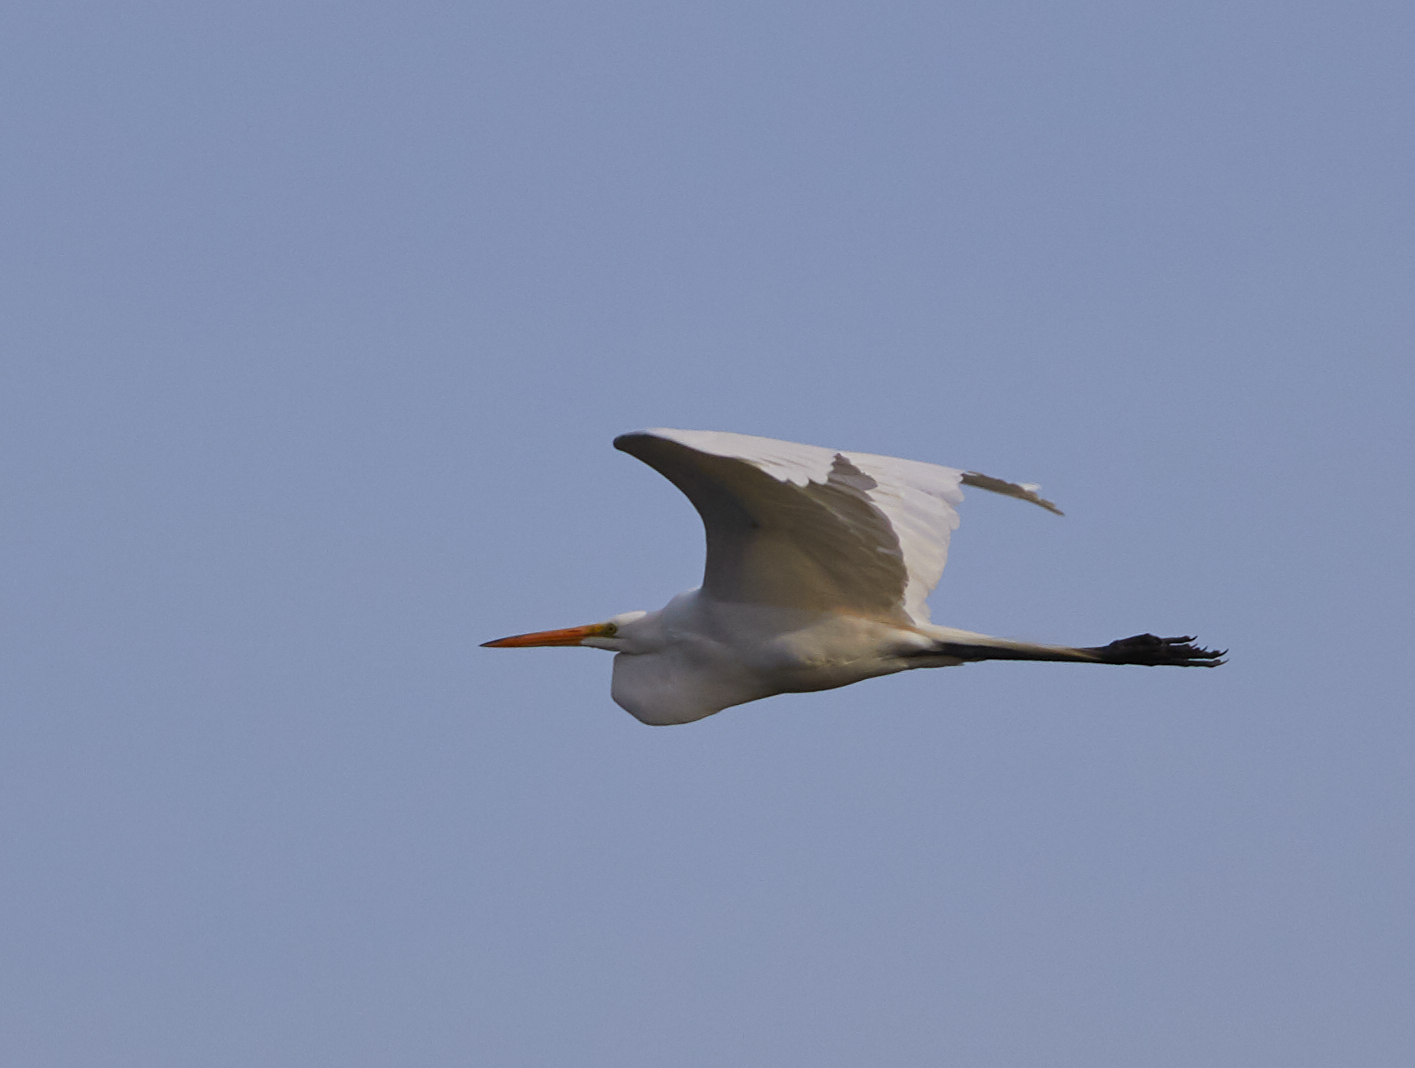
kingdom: Animalia
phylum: Chordata
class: Aves
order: Pelecaniformes
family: Ardeidae
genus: Ardea
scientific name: Ardea alba
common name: Great egret
